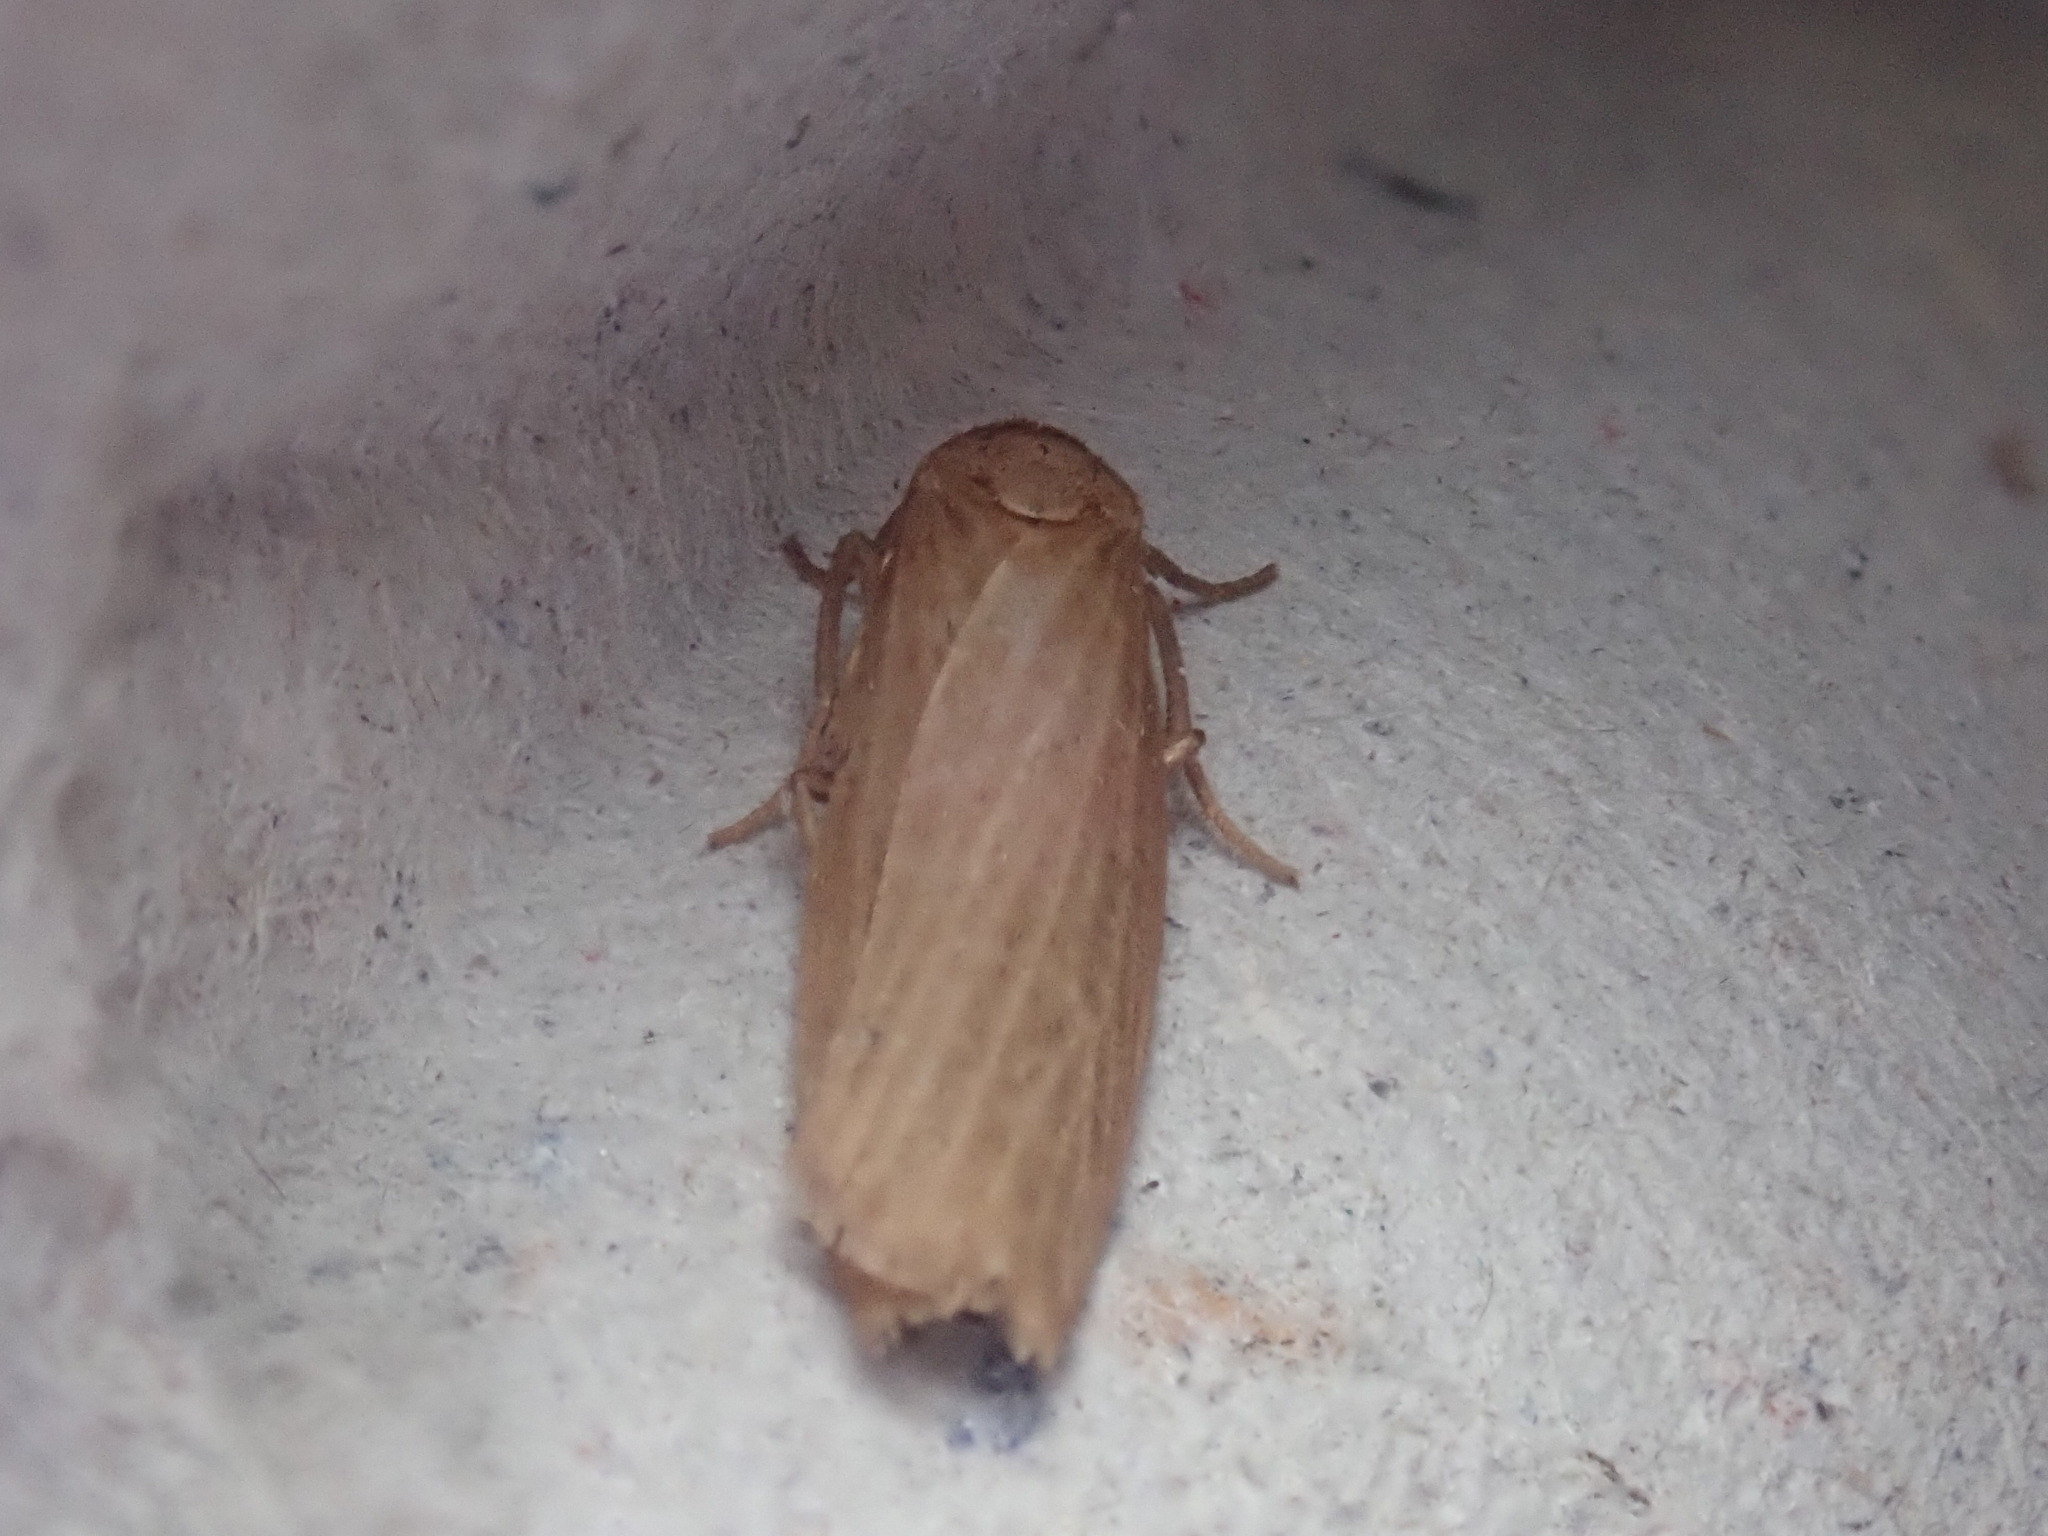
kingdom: Animalia
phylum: Arthropoda
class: Insecta
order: Lepidoptera
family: Erebidae
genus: Crambidia
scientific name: Crambidia pallida
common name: Pale lichen moth
